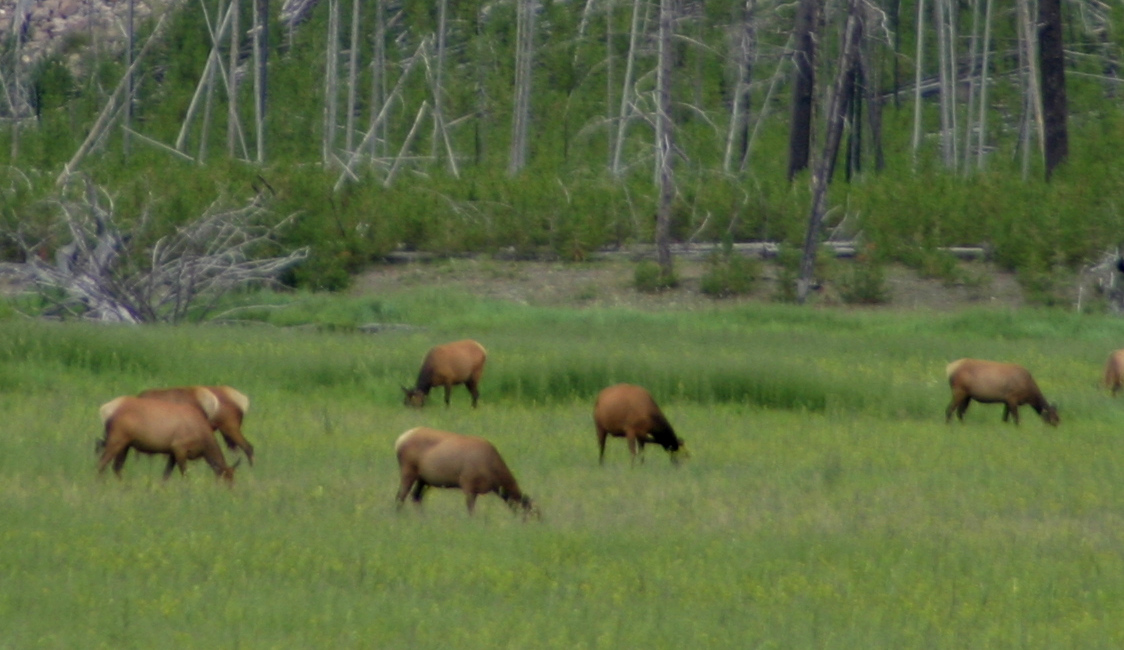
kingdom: Animalia
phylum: Chordata
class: Mammalia
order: Artiodactyla
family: Cervidae
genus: Cervus
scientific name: Cervus elaphus
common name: Red deer
